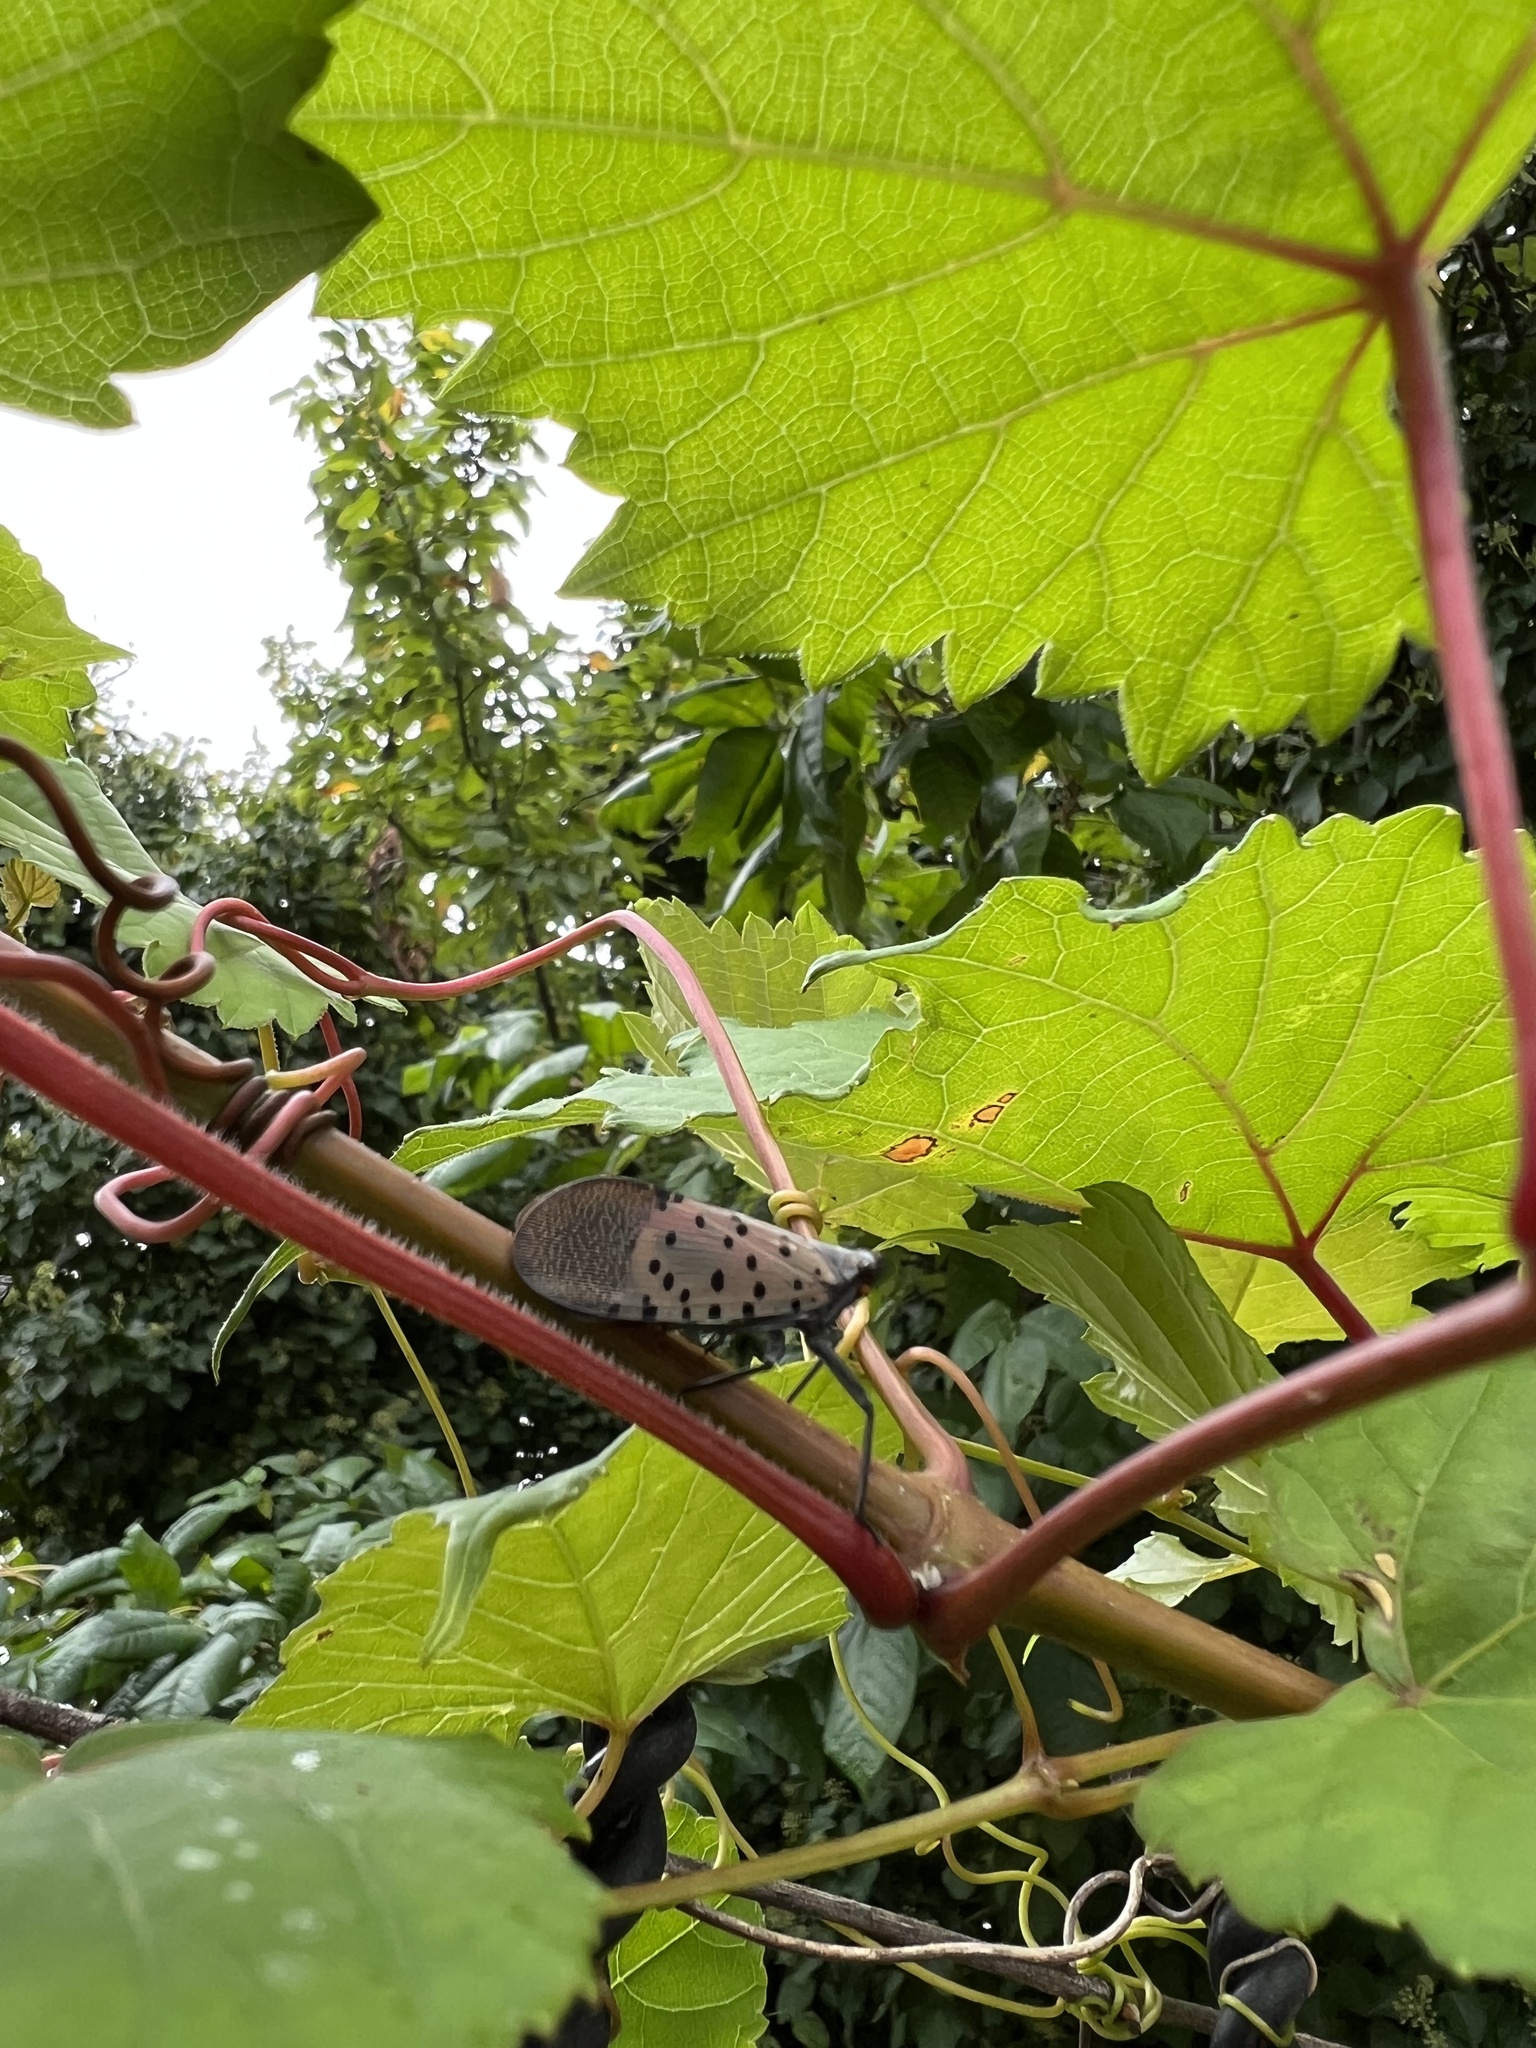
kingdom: Animalia
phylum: Arthropoda
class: Insecta
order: Hemiptera
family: Fulgoridae
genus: Lycorma
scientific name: Lycorma delicatula
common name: Spotted lanternfly
